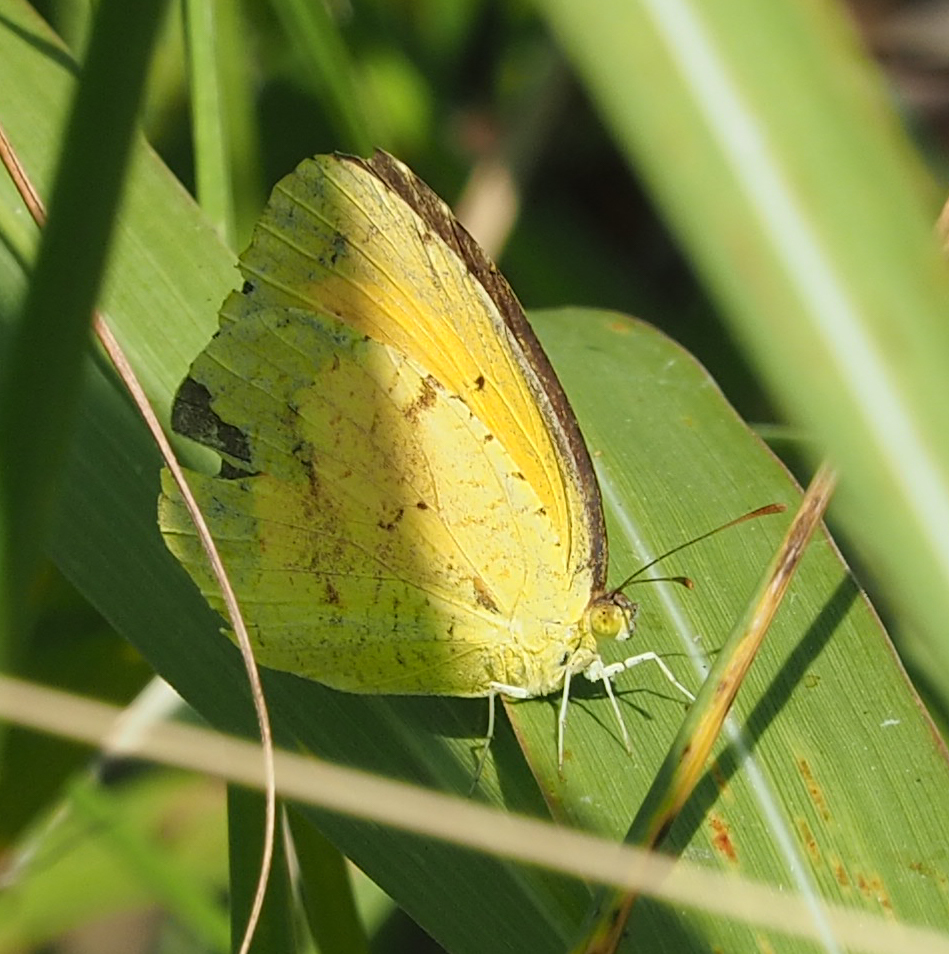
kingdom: Animalia
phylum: Arthropoda
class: Insecta
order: Lepidoptera
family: Pieridae
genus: Abaeis
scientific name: Abaeis nicippe
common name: Sleepy orange
